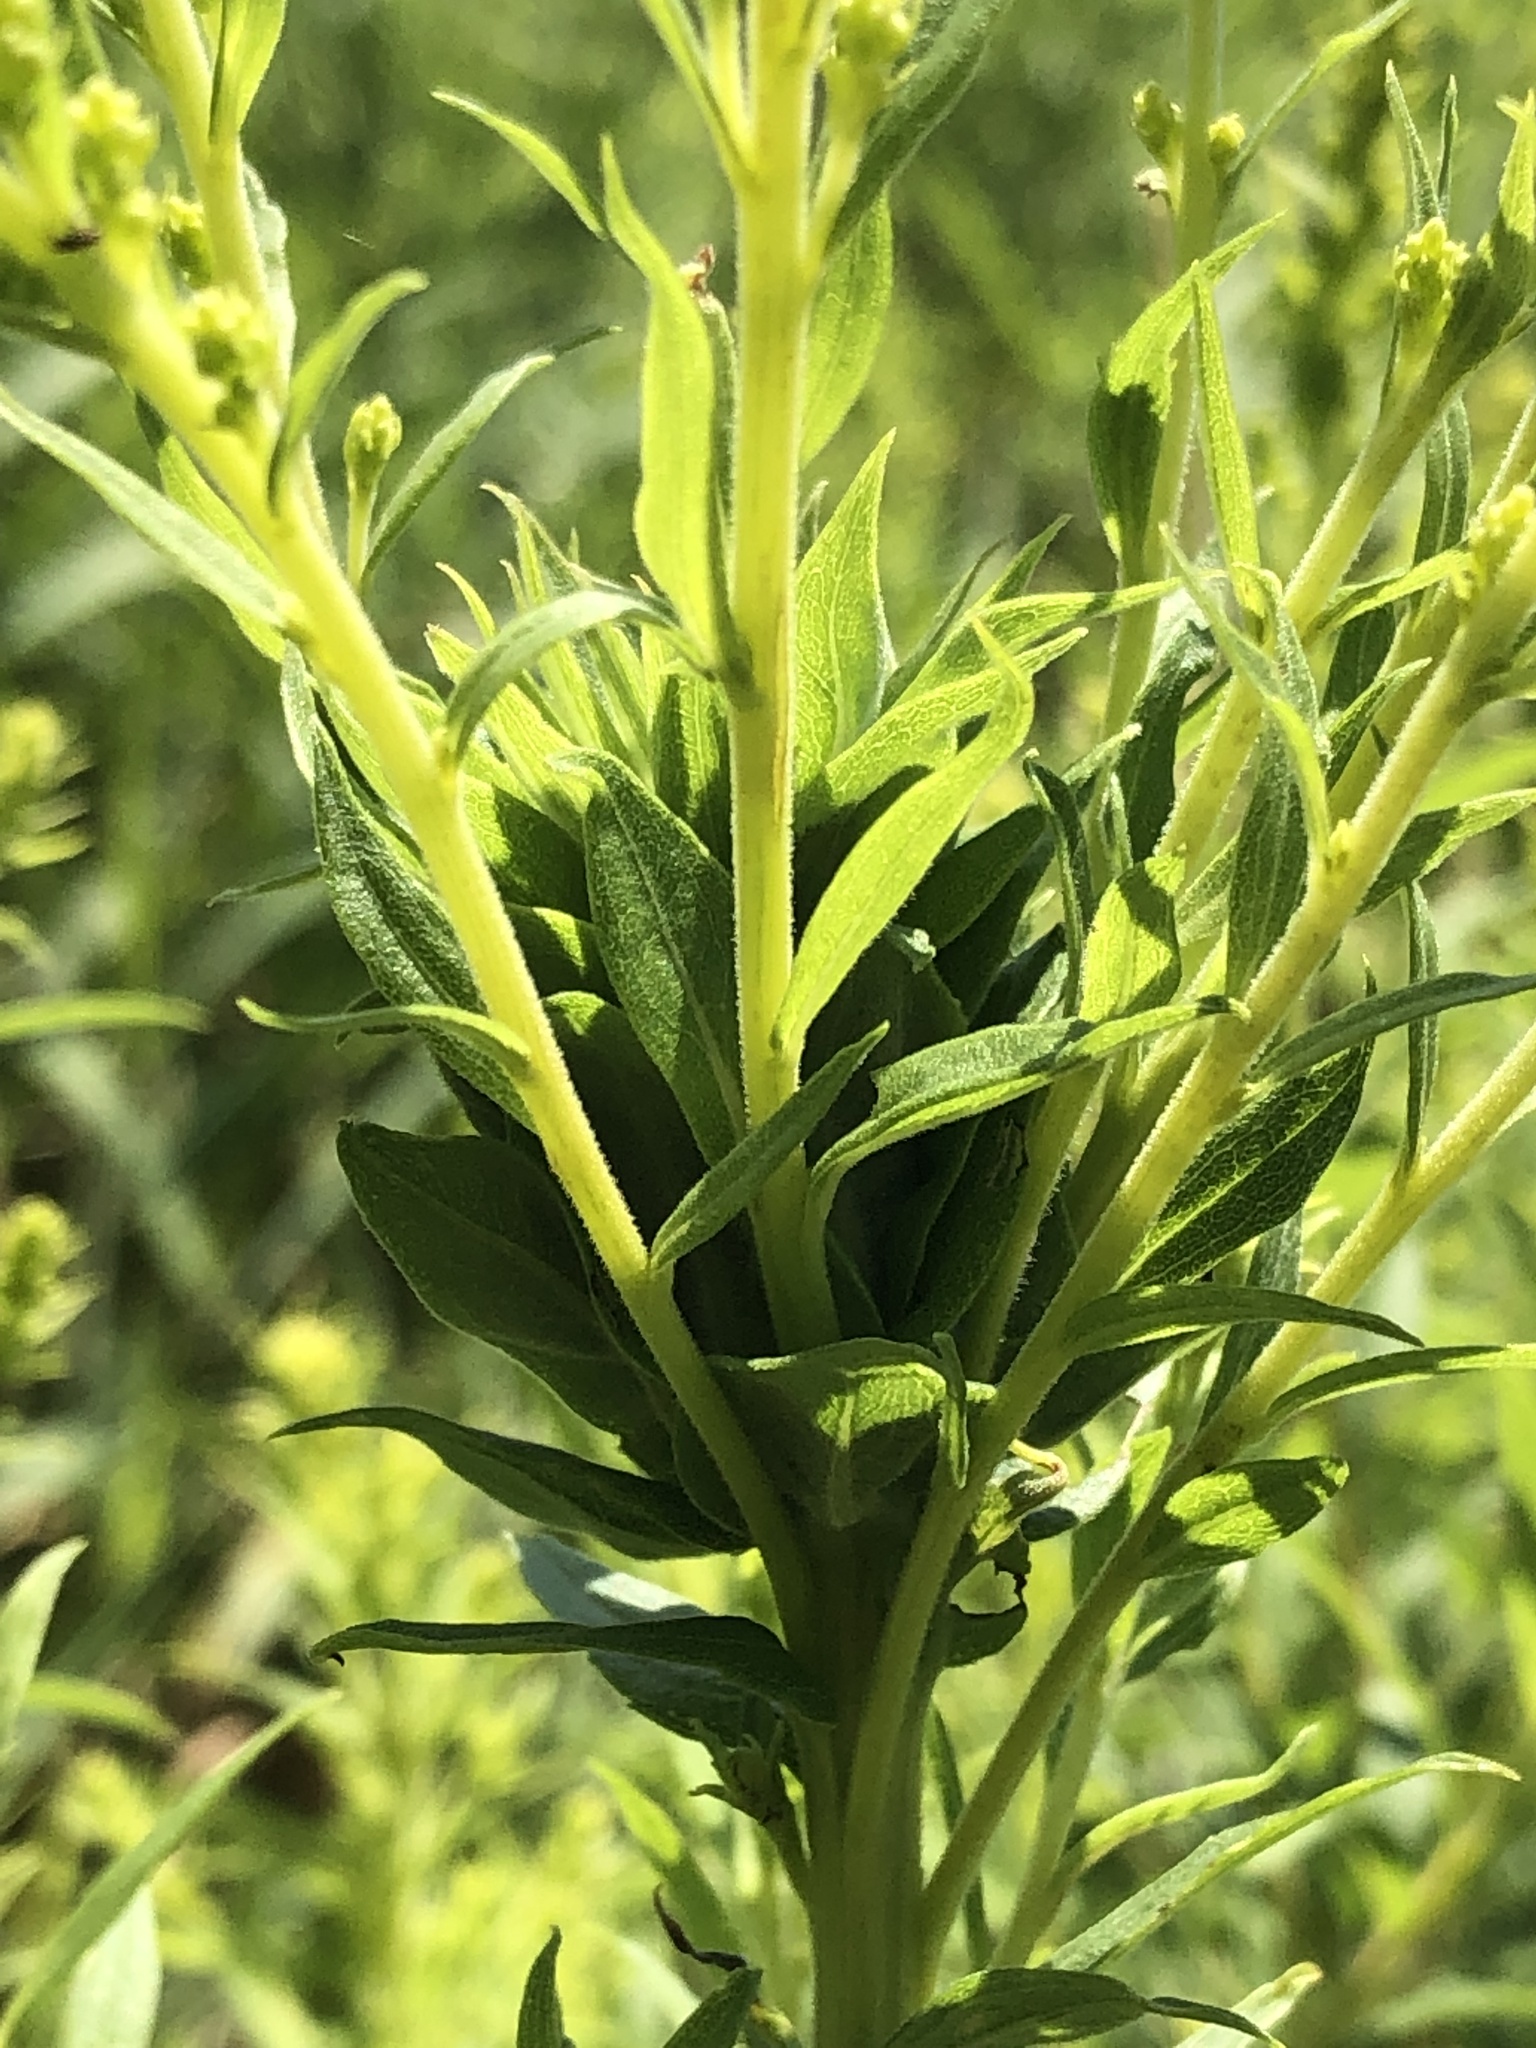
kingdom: Animalia
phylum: Arthropoda
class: Insecta
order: Diptera
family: Cecidomyiidae
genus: Rhopalomyia
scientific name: Rhopalomyia solidaginis
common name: Goldenrod bunch gall midge
